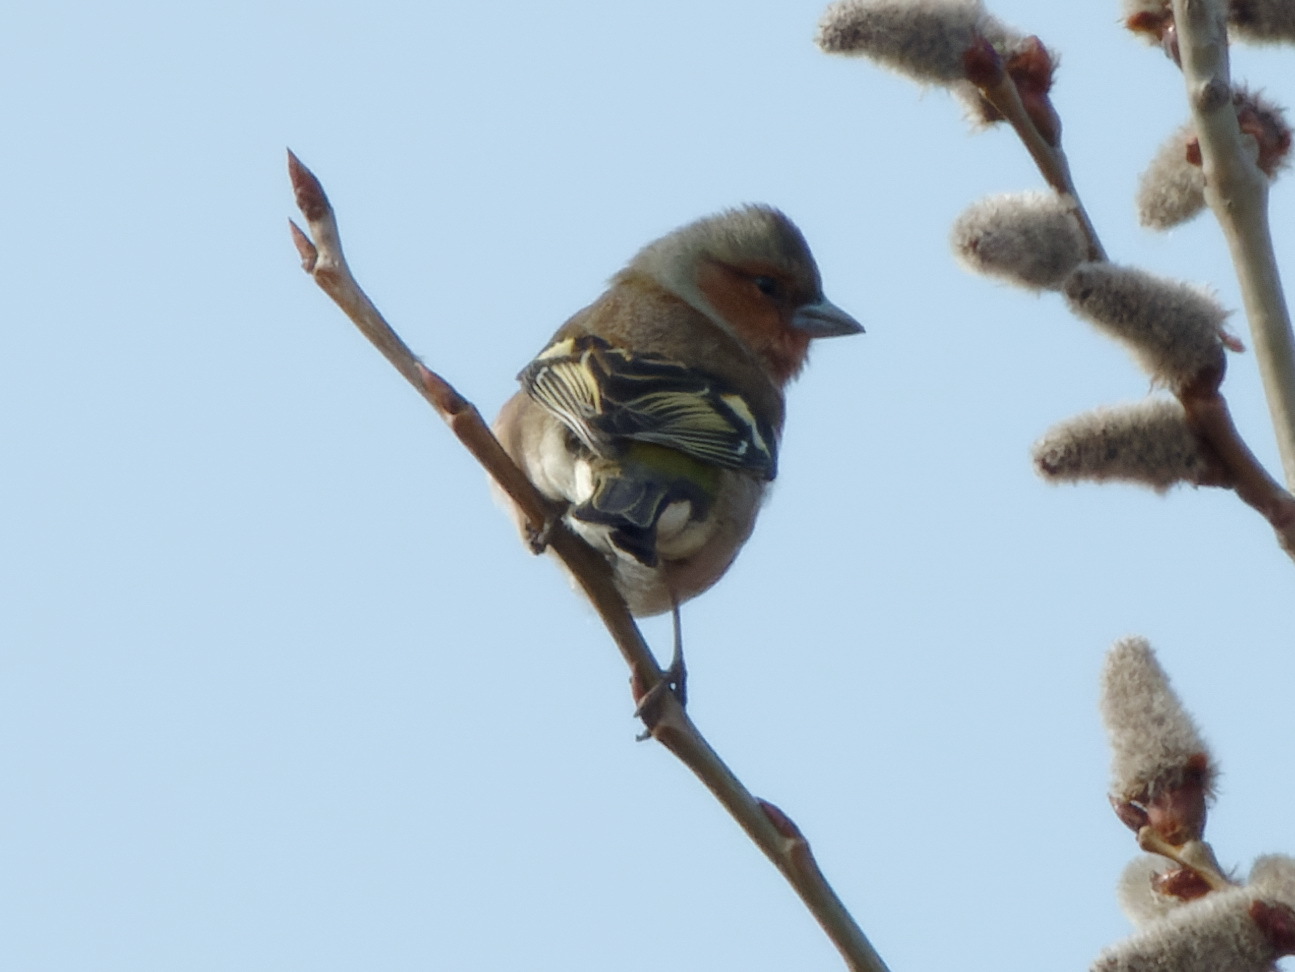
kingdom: Animalia
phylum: Chordata
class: Aves
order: Passeriformes
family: Fringillidae
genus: Fringilla
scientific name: Fringilla coelebs
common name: Common chaffinch
